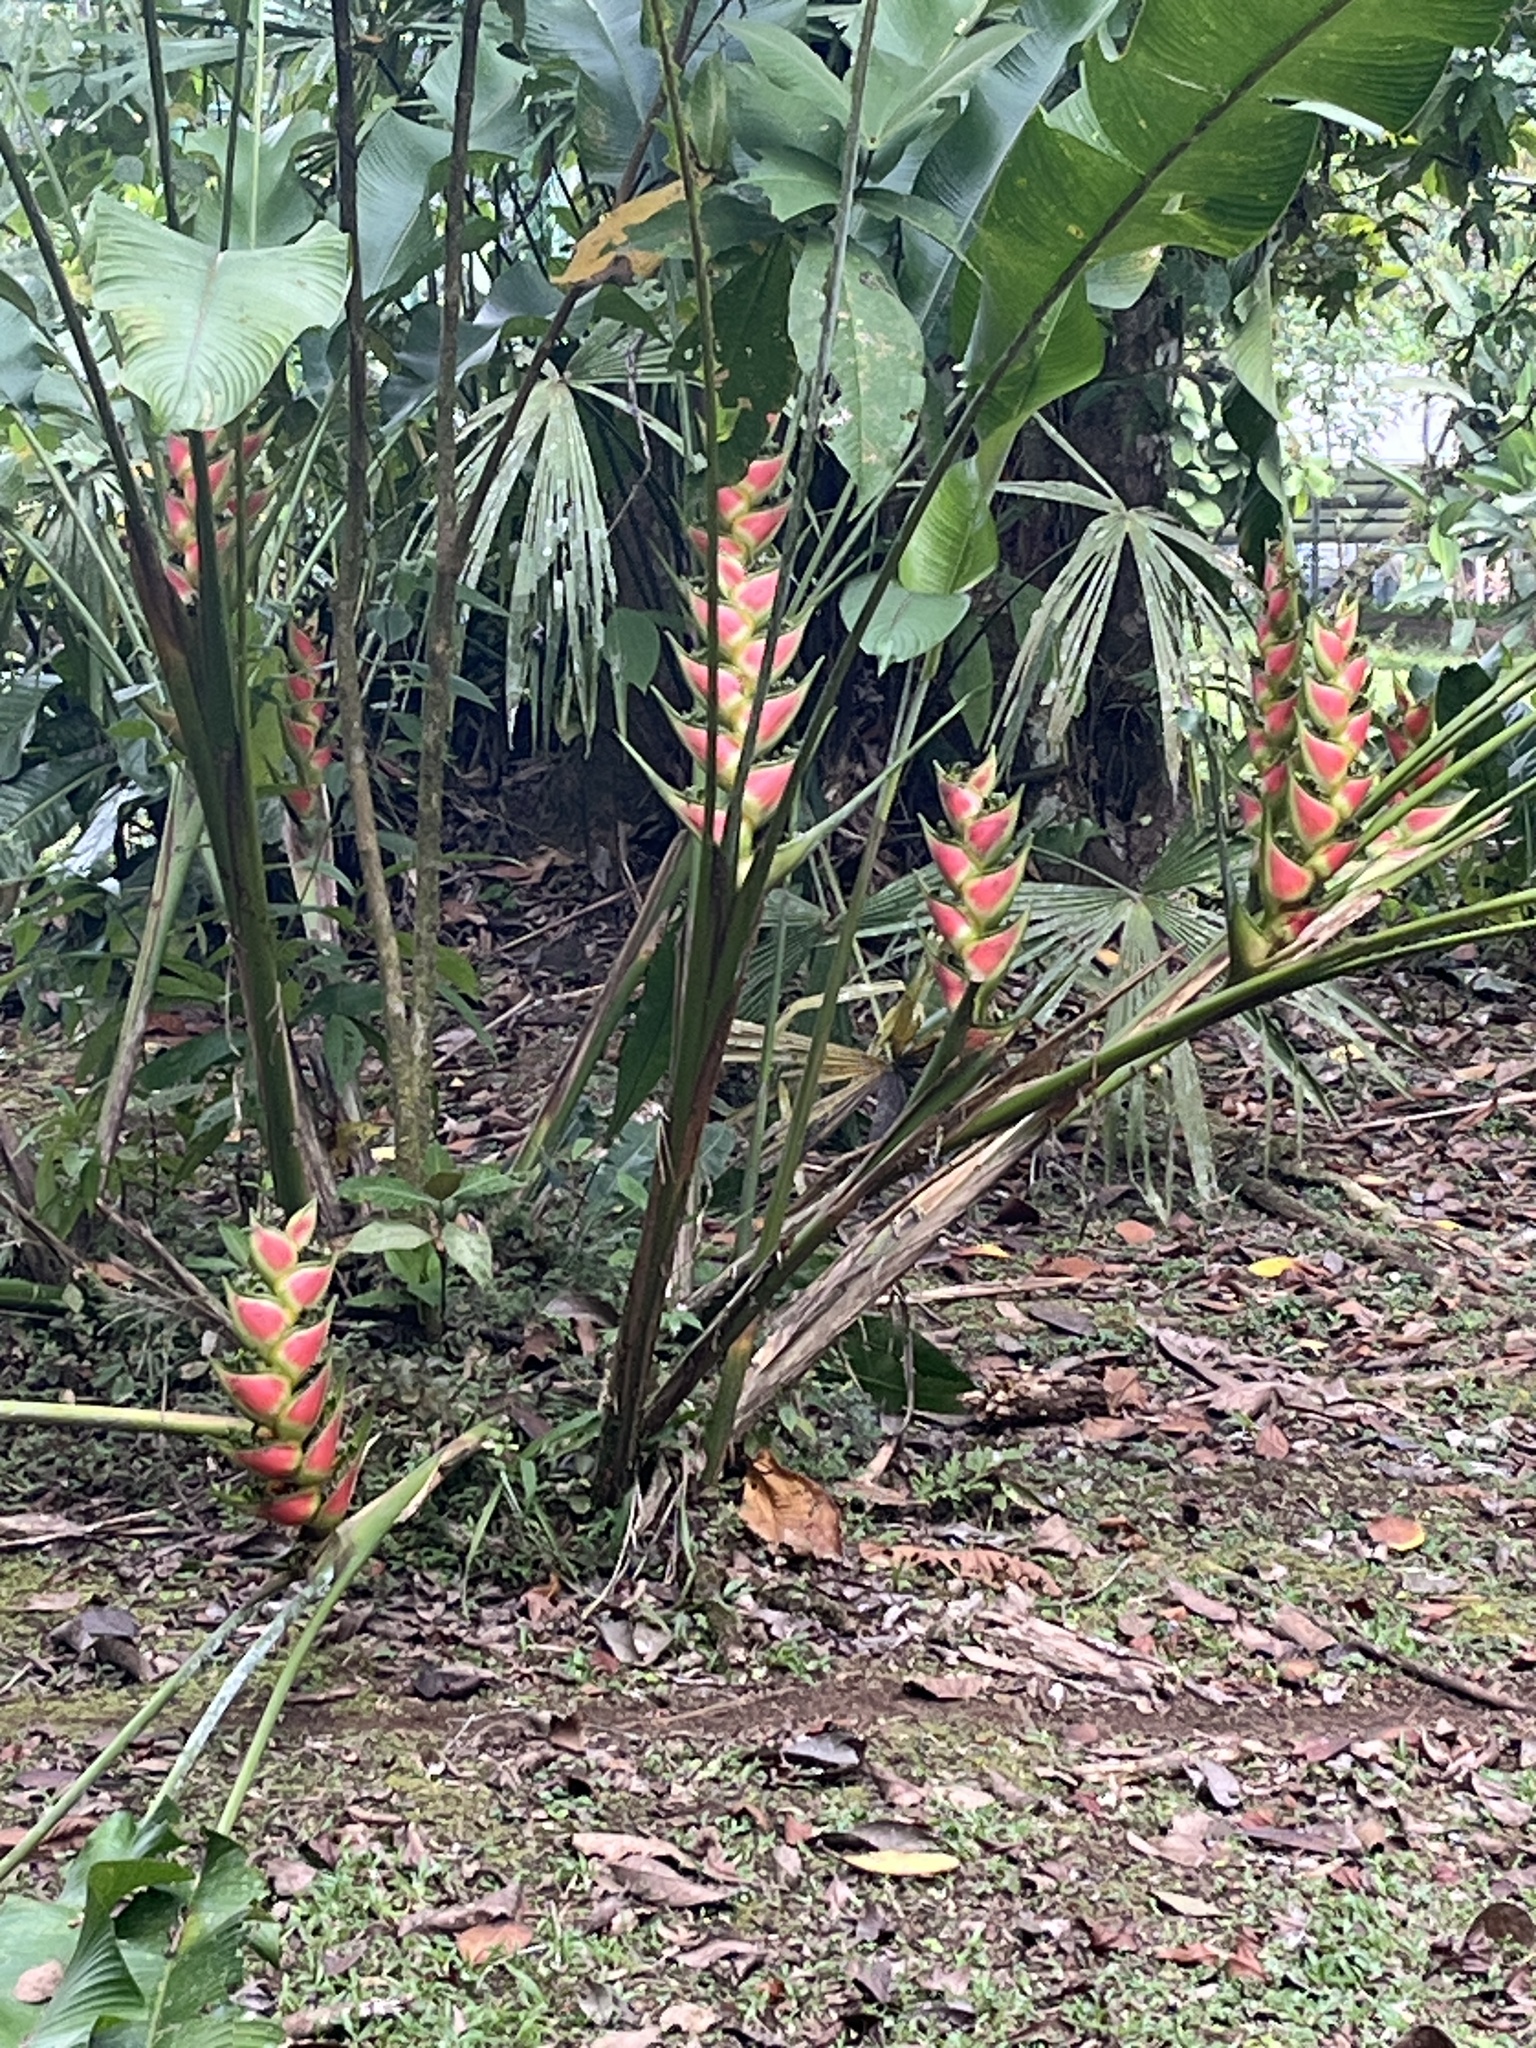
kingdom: Plantae
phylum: Tracheophyta
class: Liliopsida
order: Zingiberales
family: Heliconiaceae
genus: Heliconia
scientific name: Heliconia wagneriana
